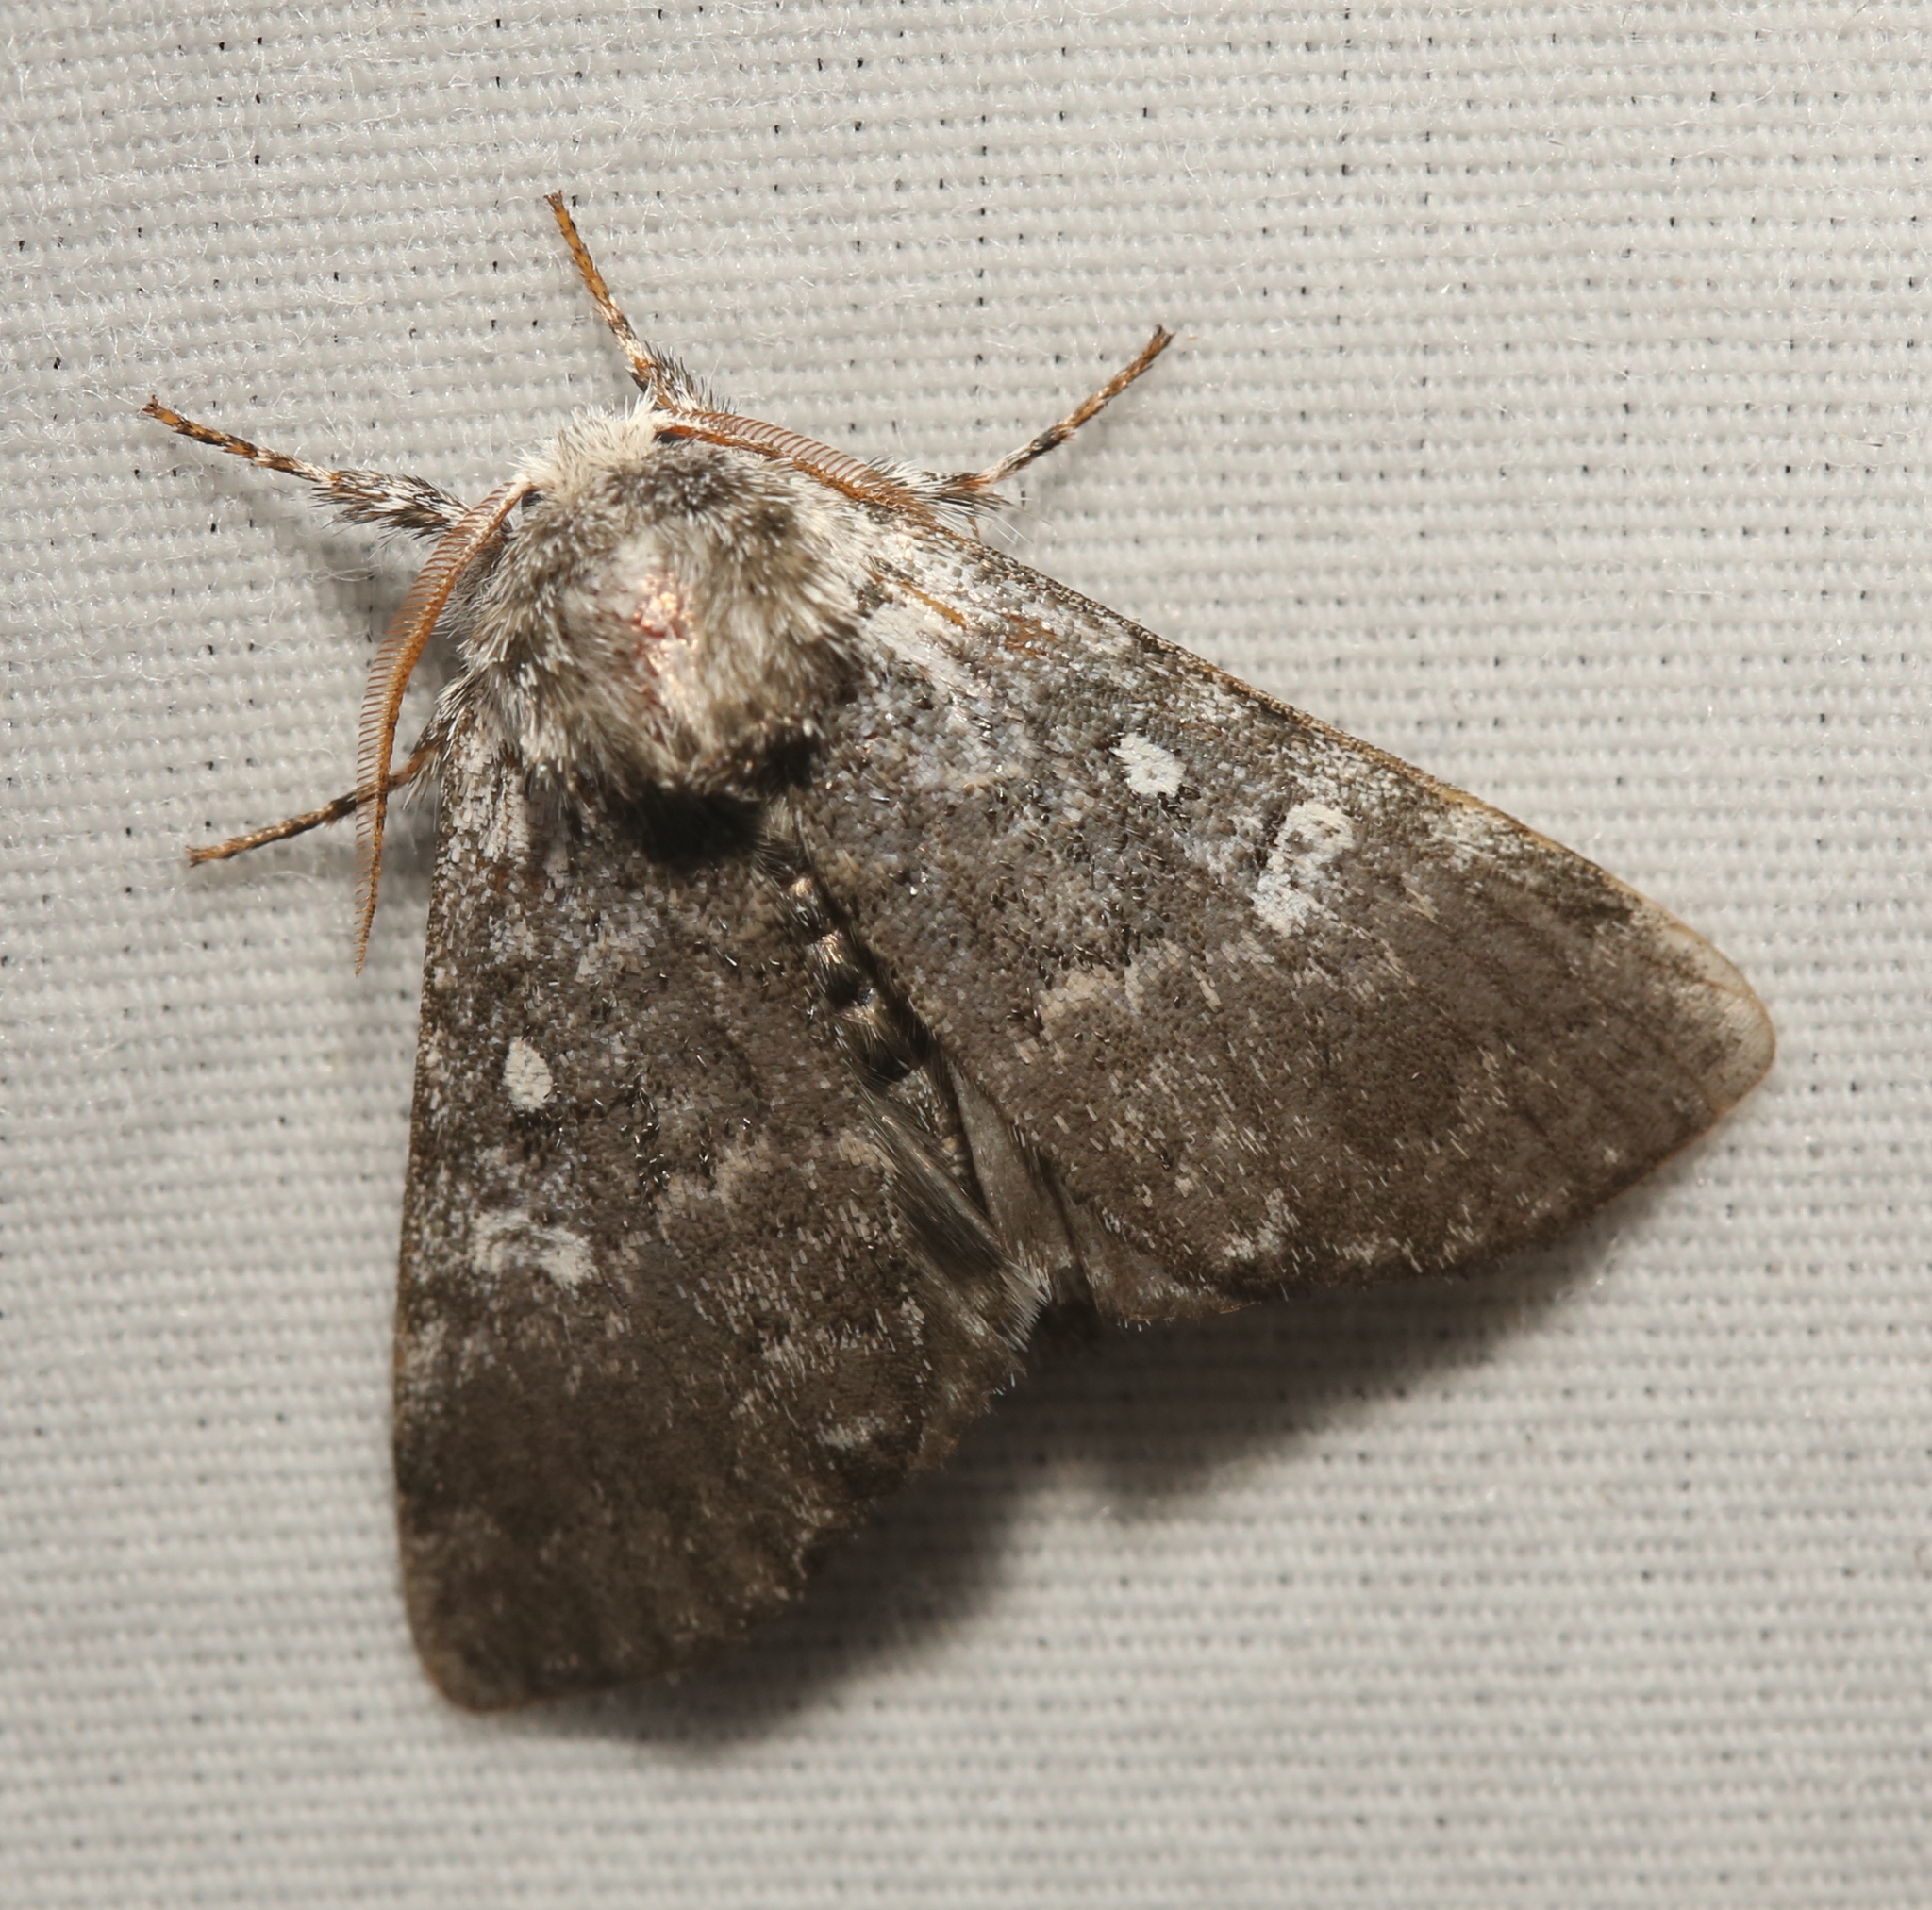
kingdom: Animalia
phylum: Arthropoda
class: Insecta
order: Lepidoptera
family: Noctuidae
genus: Colocasia
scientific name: Colocasia propinquilinea
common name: Close-banded demas
